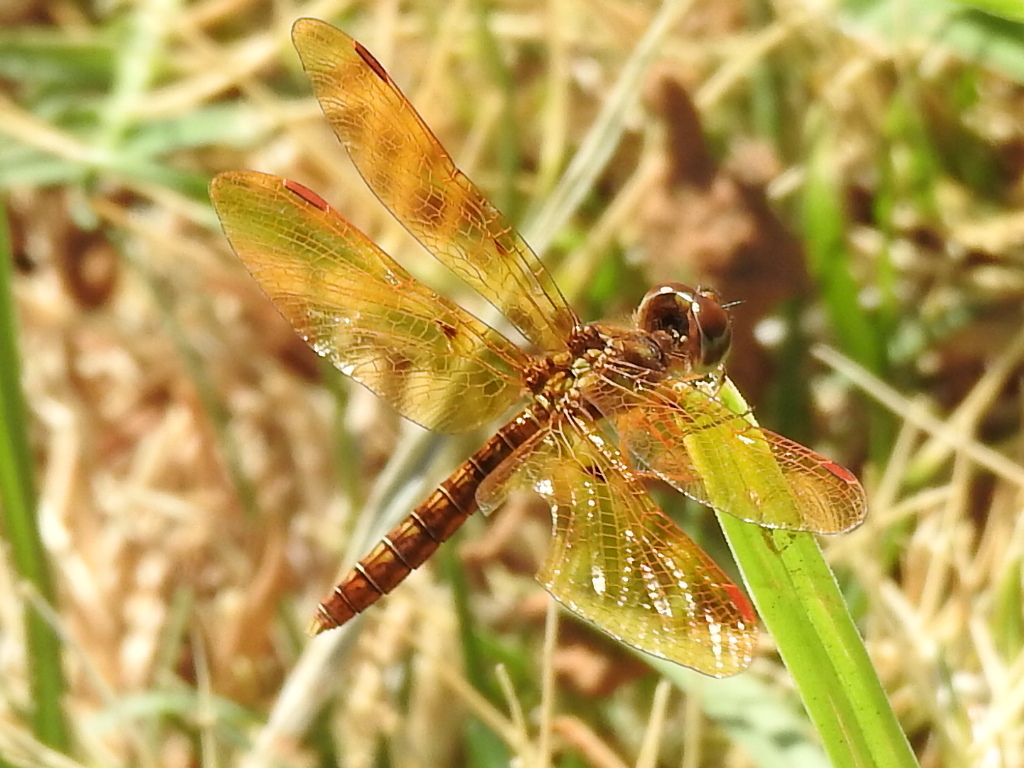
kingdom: Animalia
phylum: Arthropoda
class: Insecta
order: Odonata
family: Libellulidae
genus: Perithemis
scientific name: Perithemis tenera
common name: Eastern amberwing
